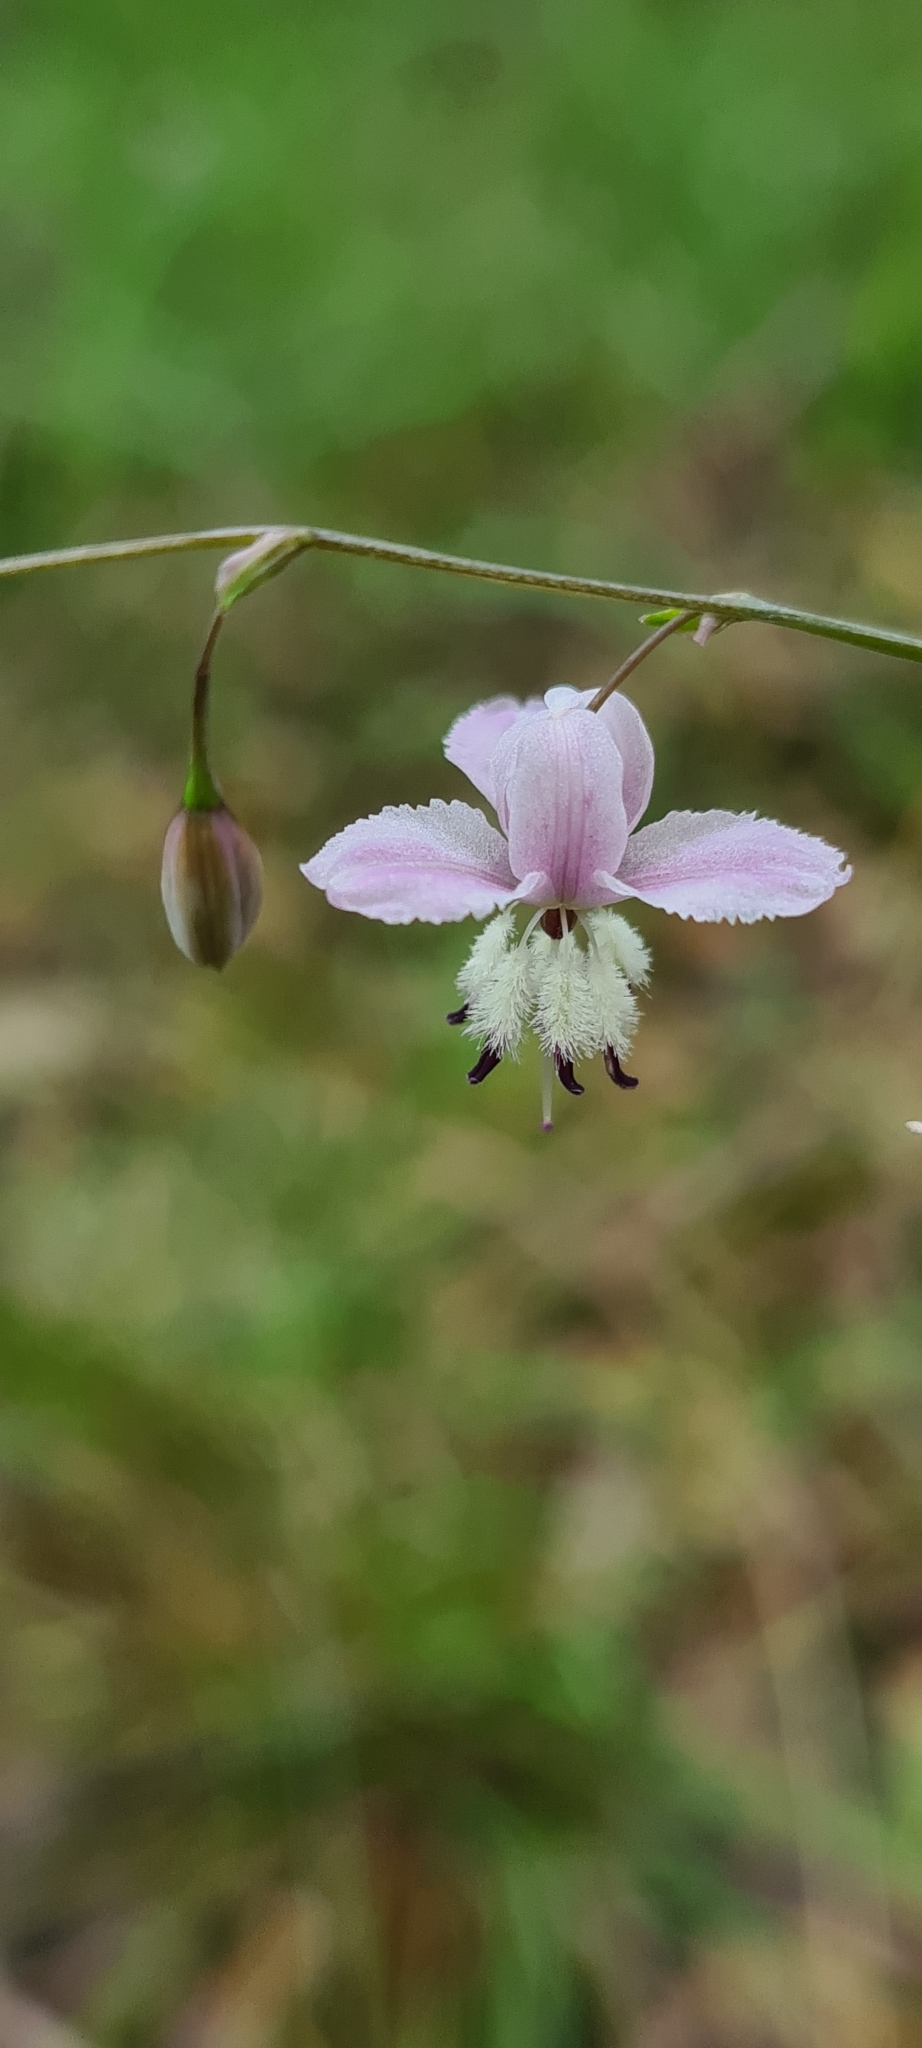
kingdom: Plantae
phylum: Tracheophyta
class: Liliopsida
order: Asparagales
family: Asparagaceae
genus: Arthropodium
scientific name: Arthropodium milleflorum
